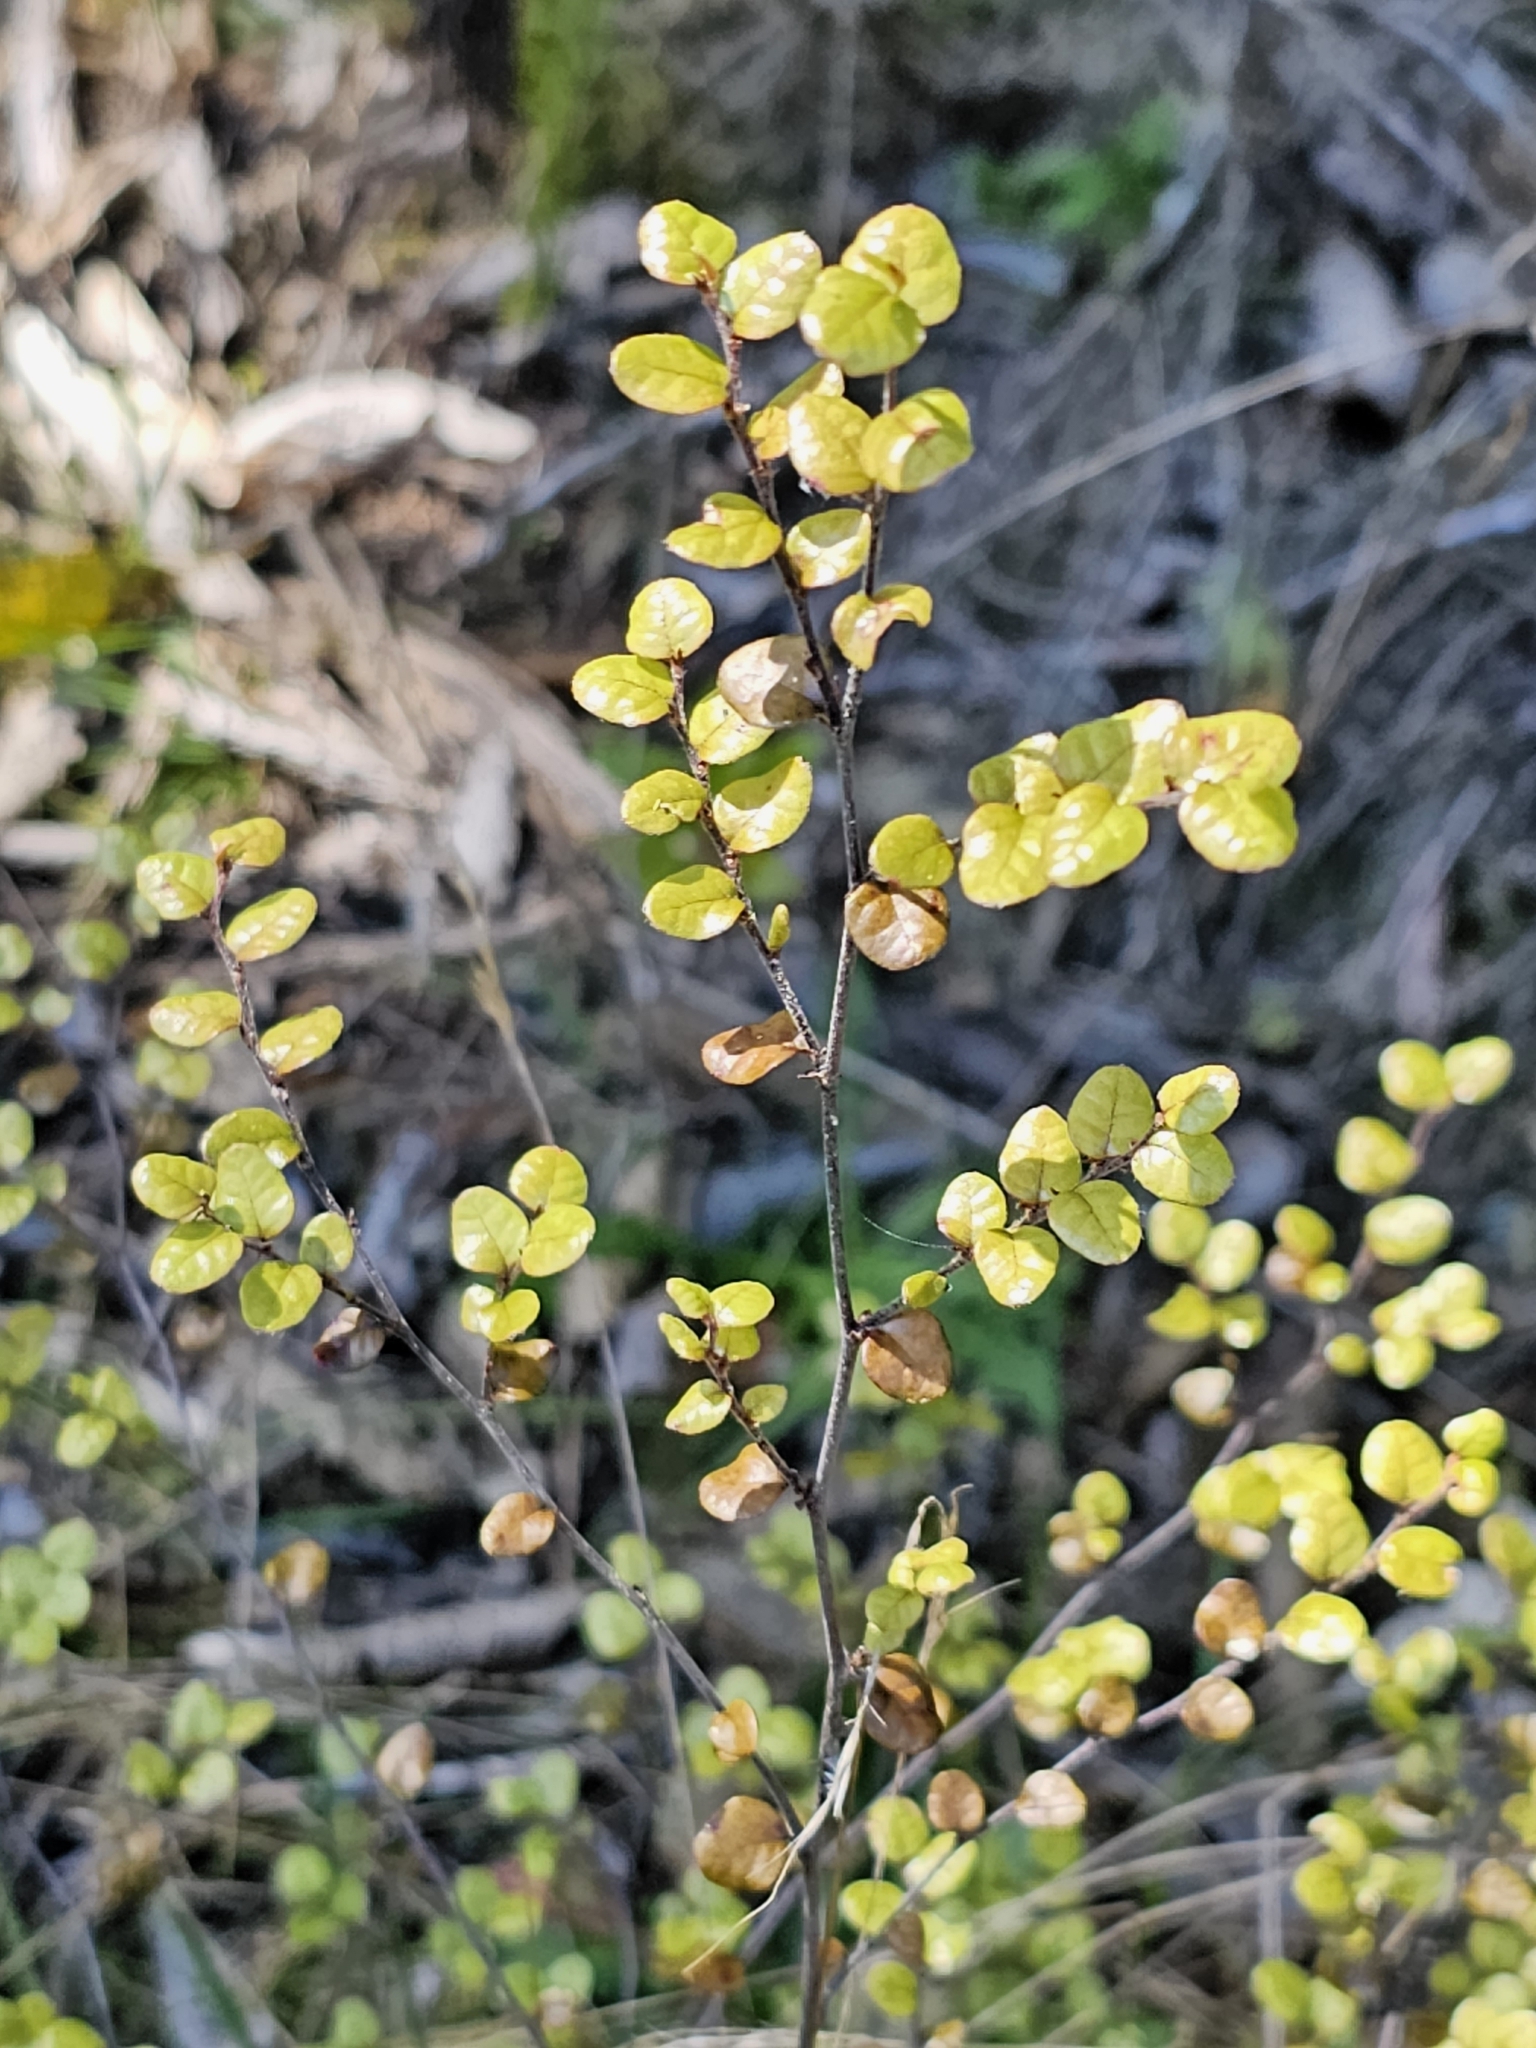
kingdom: Plantae
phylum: Tracheophyta
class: Magnoliopsida
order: Fagales
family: Nothofagaceae
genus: Nothofagus
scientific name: Nothofagus solandri
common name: Black beech
